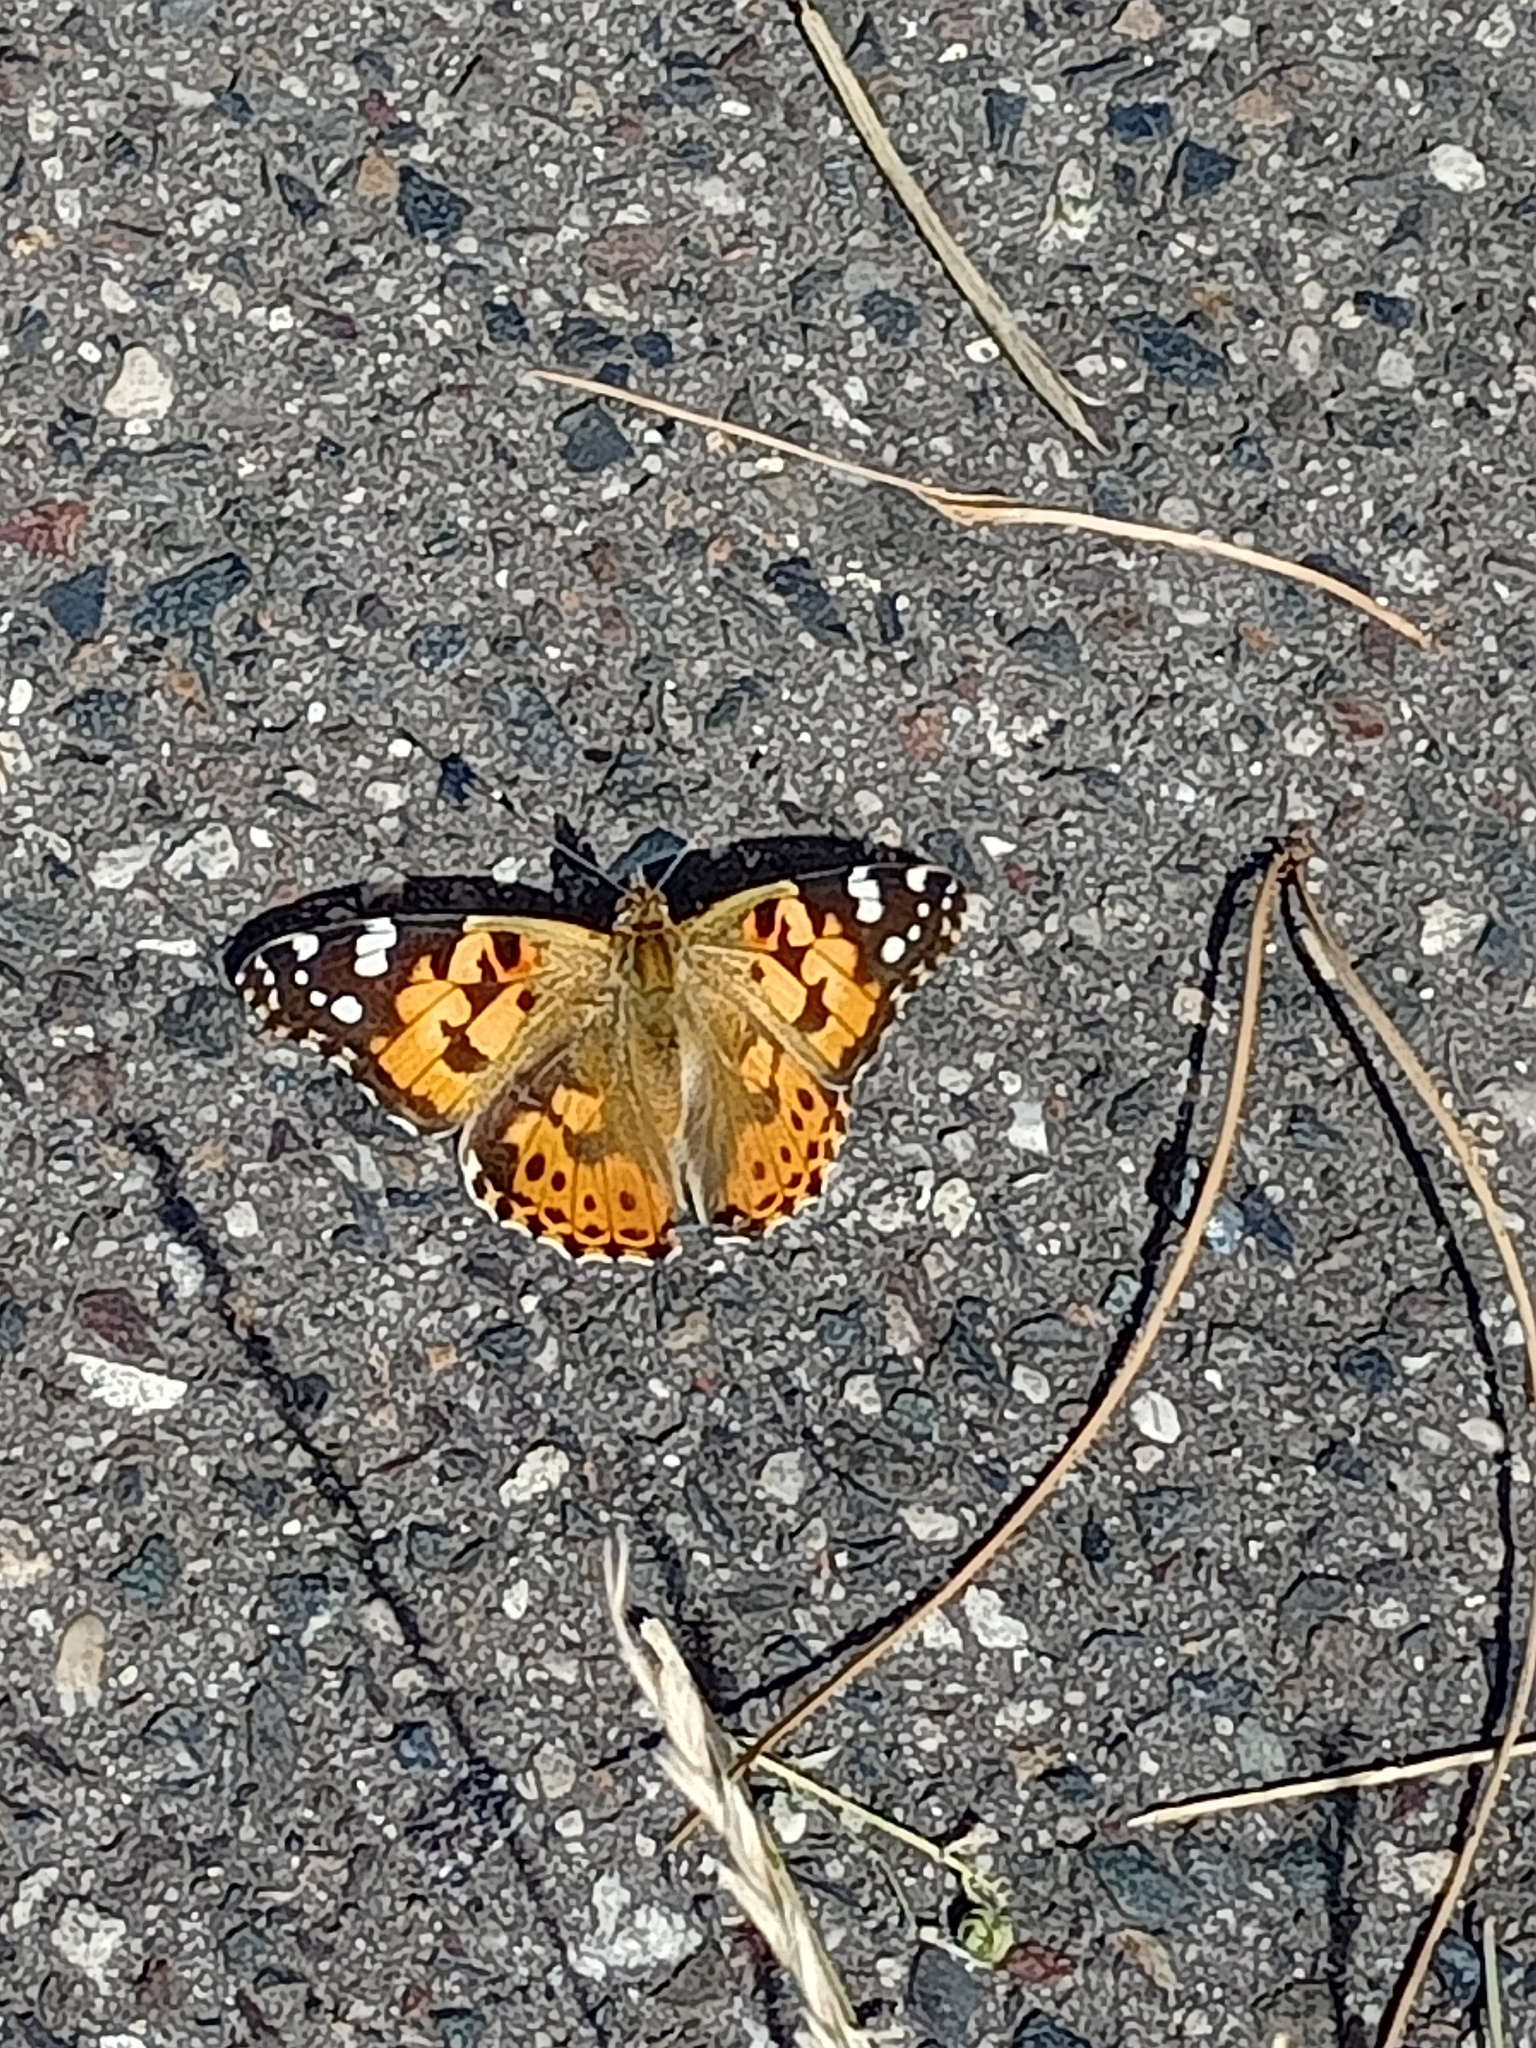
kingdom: Animalia
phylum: Arthropoda
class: Insecta
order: Lepidoptera
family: Nymphalidae
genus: Vanessa
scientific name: Vanessa cardui
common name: Painted lady
